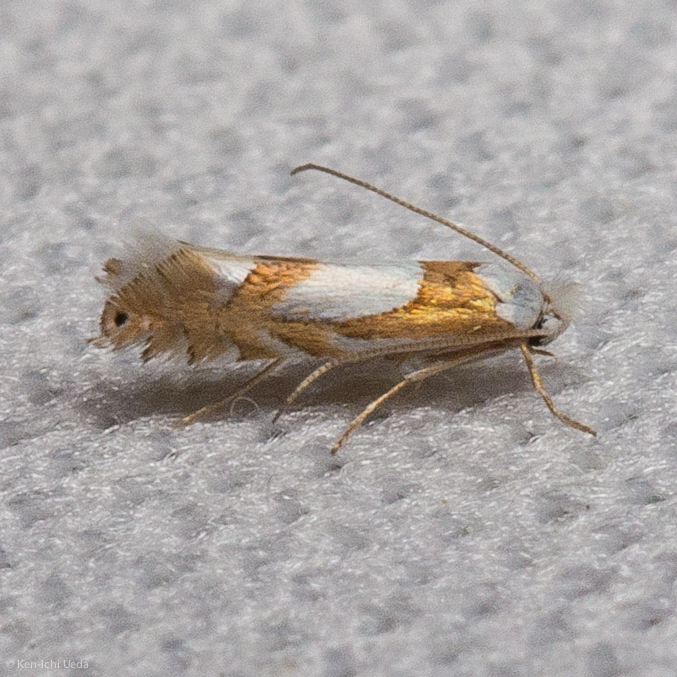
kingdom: Animalia
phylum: Arthropoda
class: Insecta
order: Lepidoptera
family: Gracillariidae
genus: Phyllonorycter
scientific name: Phyllonorycter fitchella
